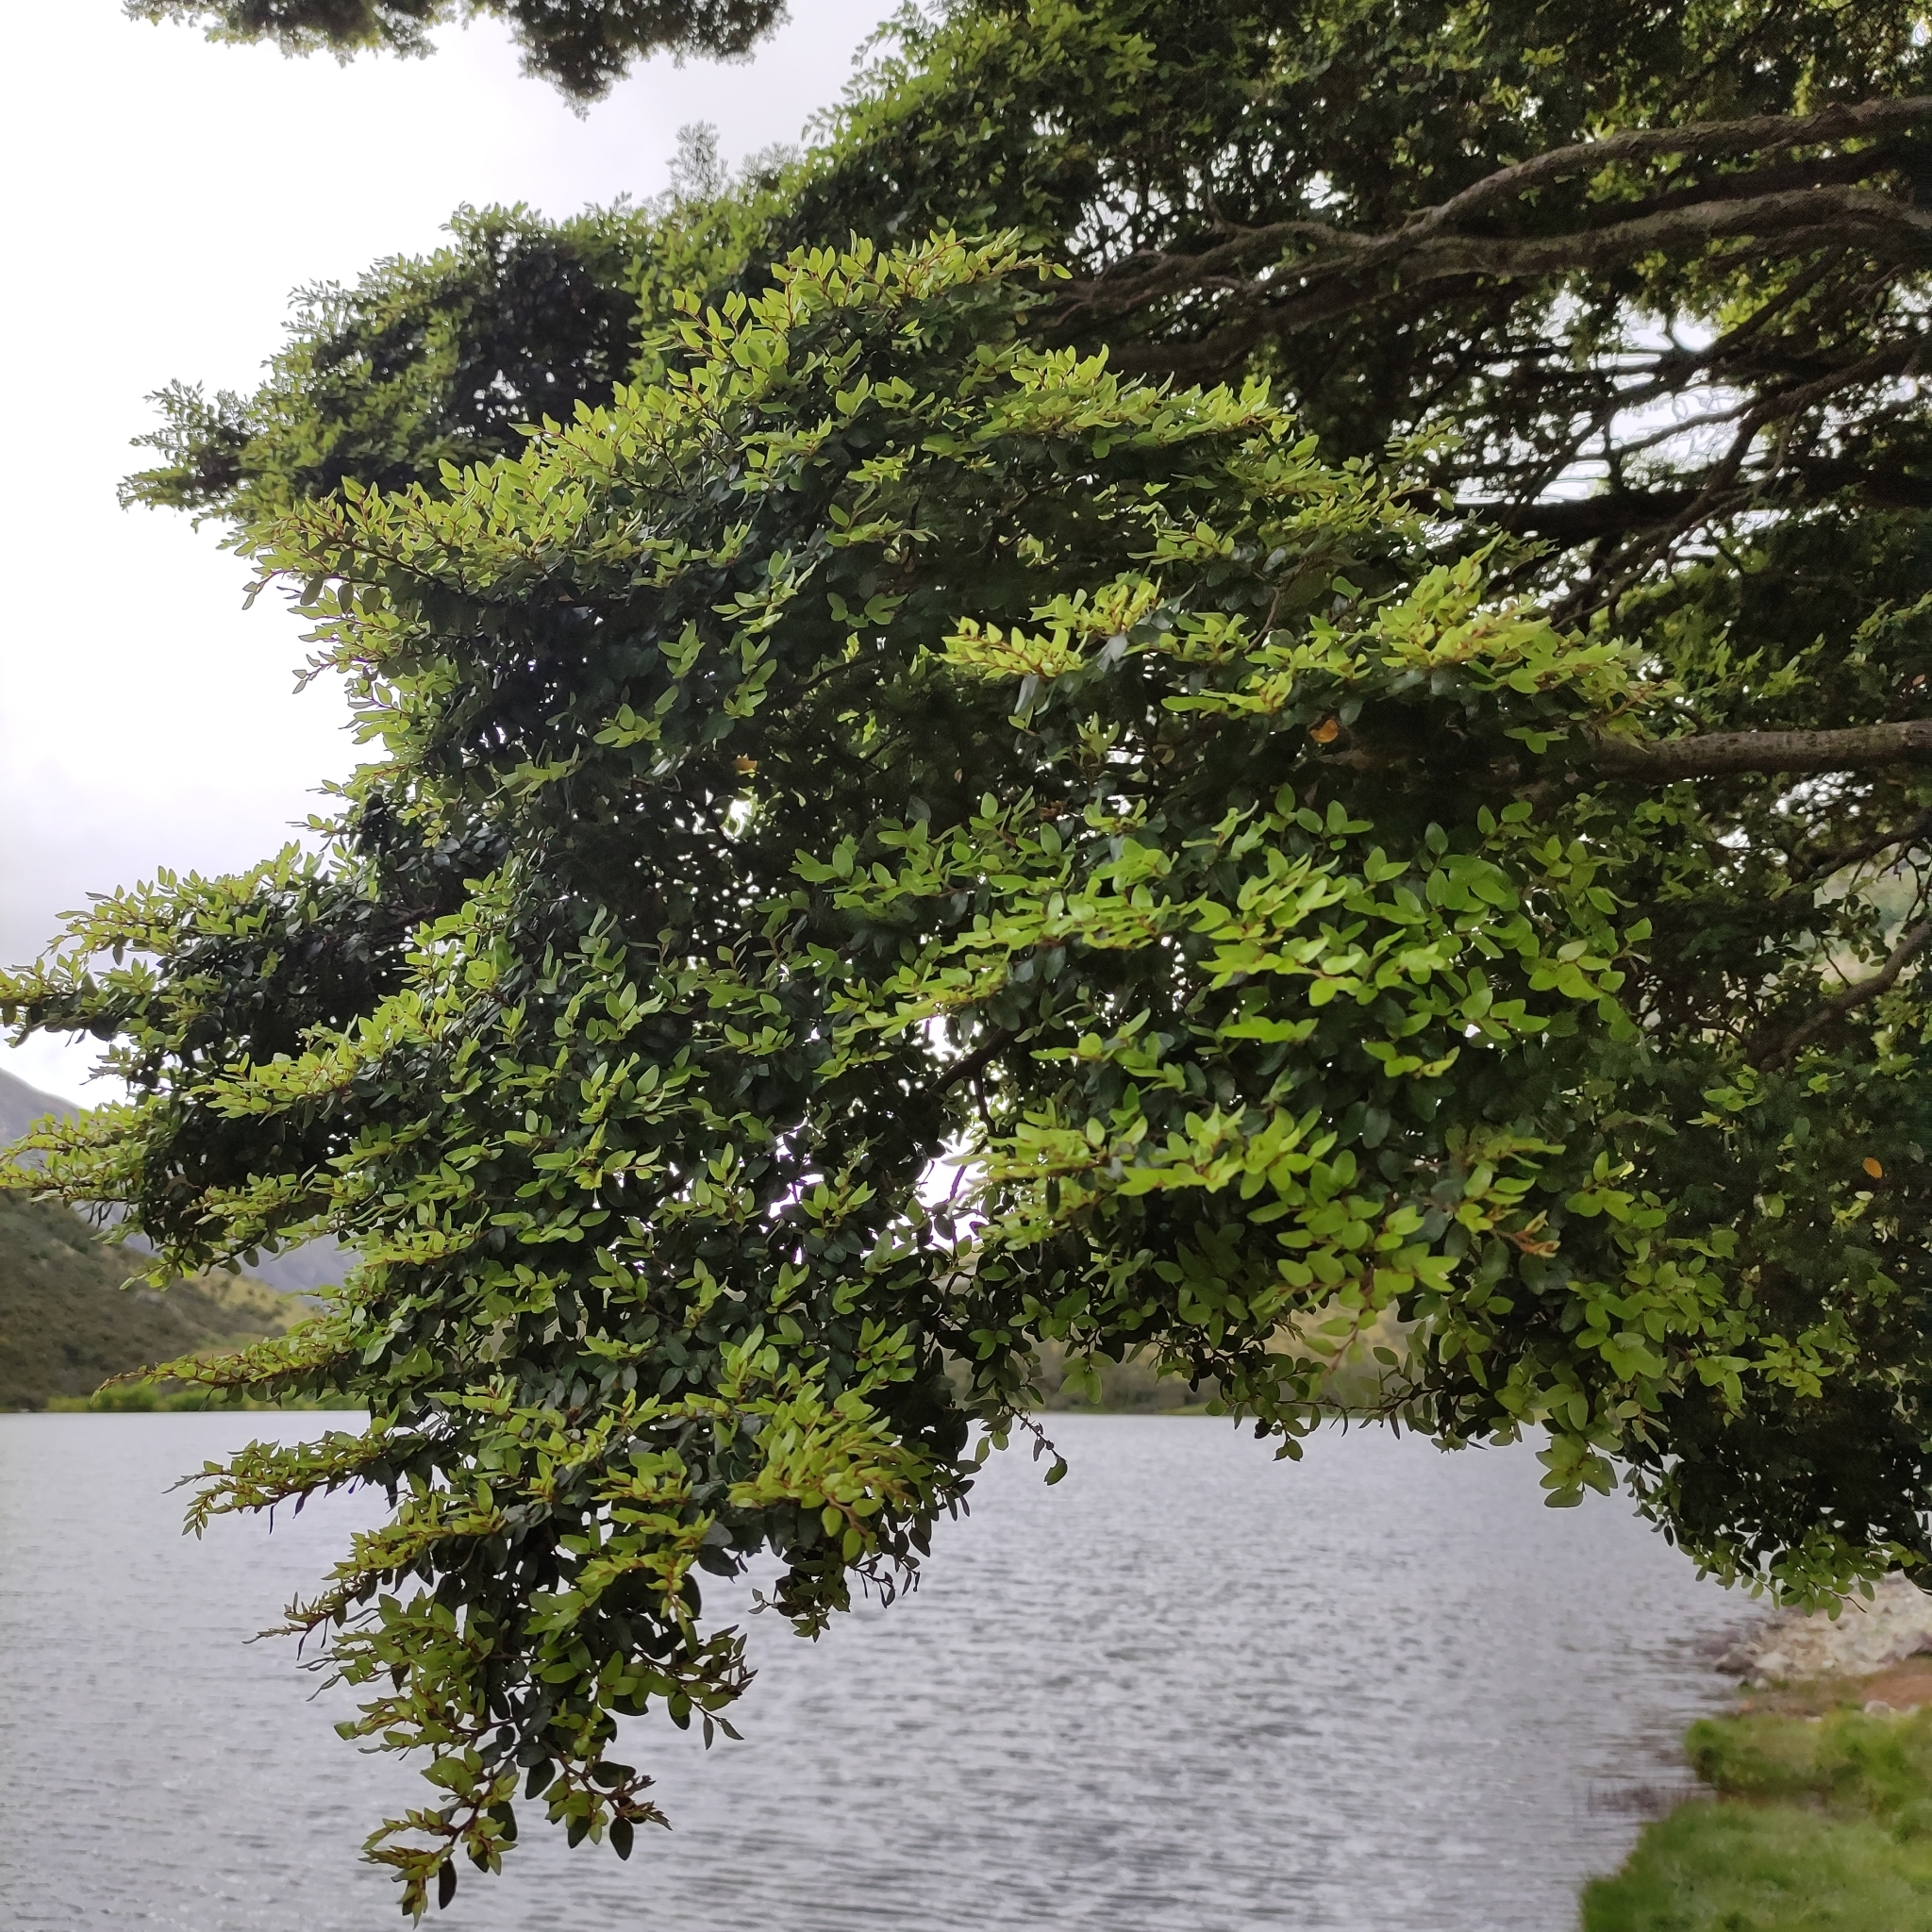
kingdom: Plantae
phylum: Tracheophyta
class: Magnoliopsida
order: Fagales
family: Nothofagaceae
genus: Nothofagus
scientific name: Nothofagus cliffortioides
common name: Mountain beech
